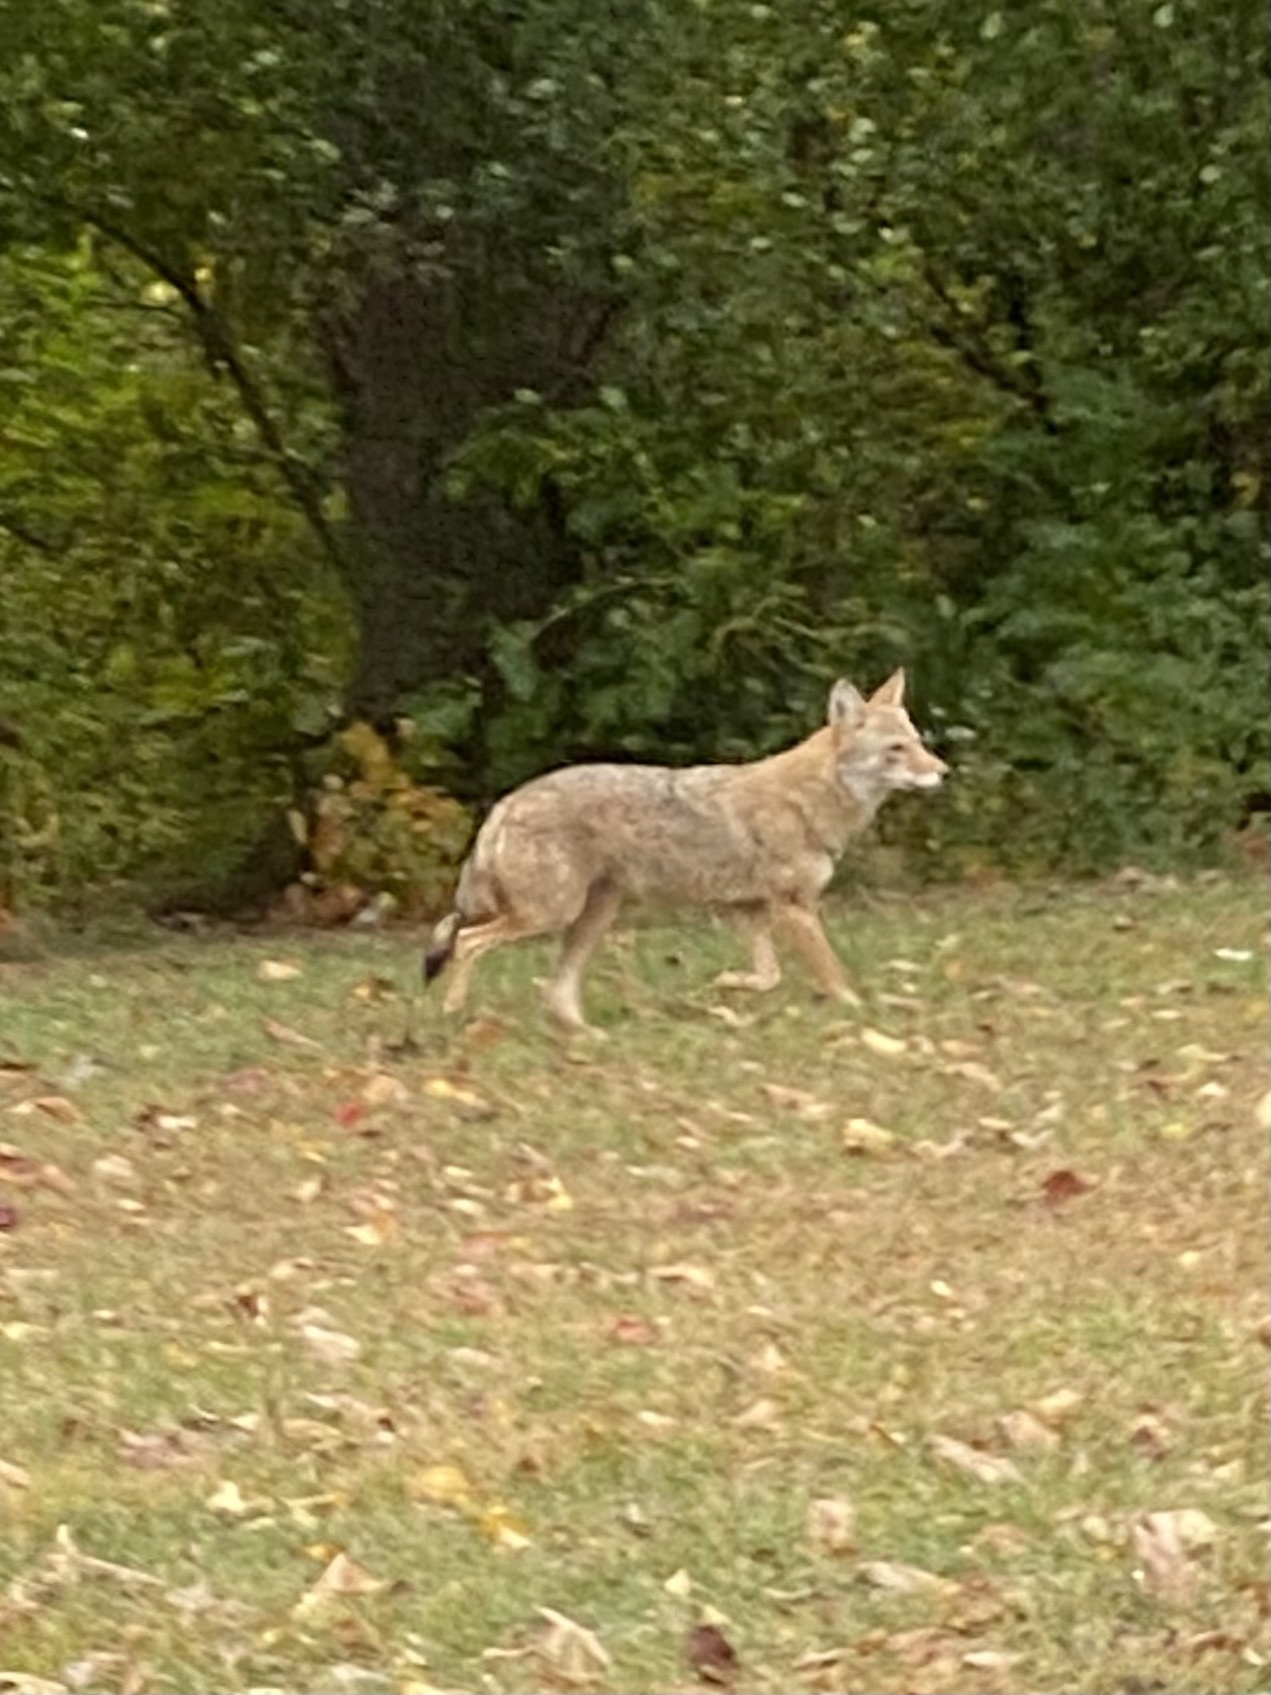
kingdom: Animalia
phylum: Chordata
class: Mammalia
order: Carnivora
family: Canidae
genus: Canis
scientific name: Canis latrans
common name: Coyote
